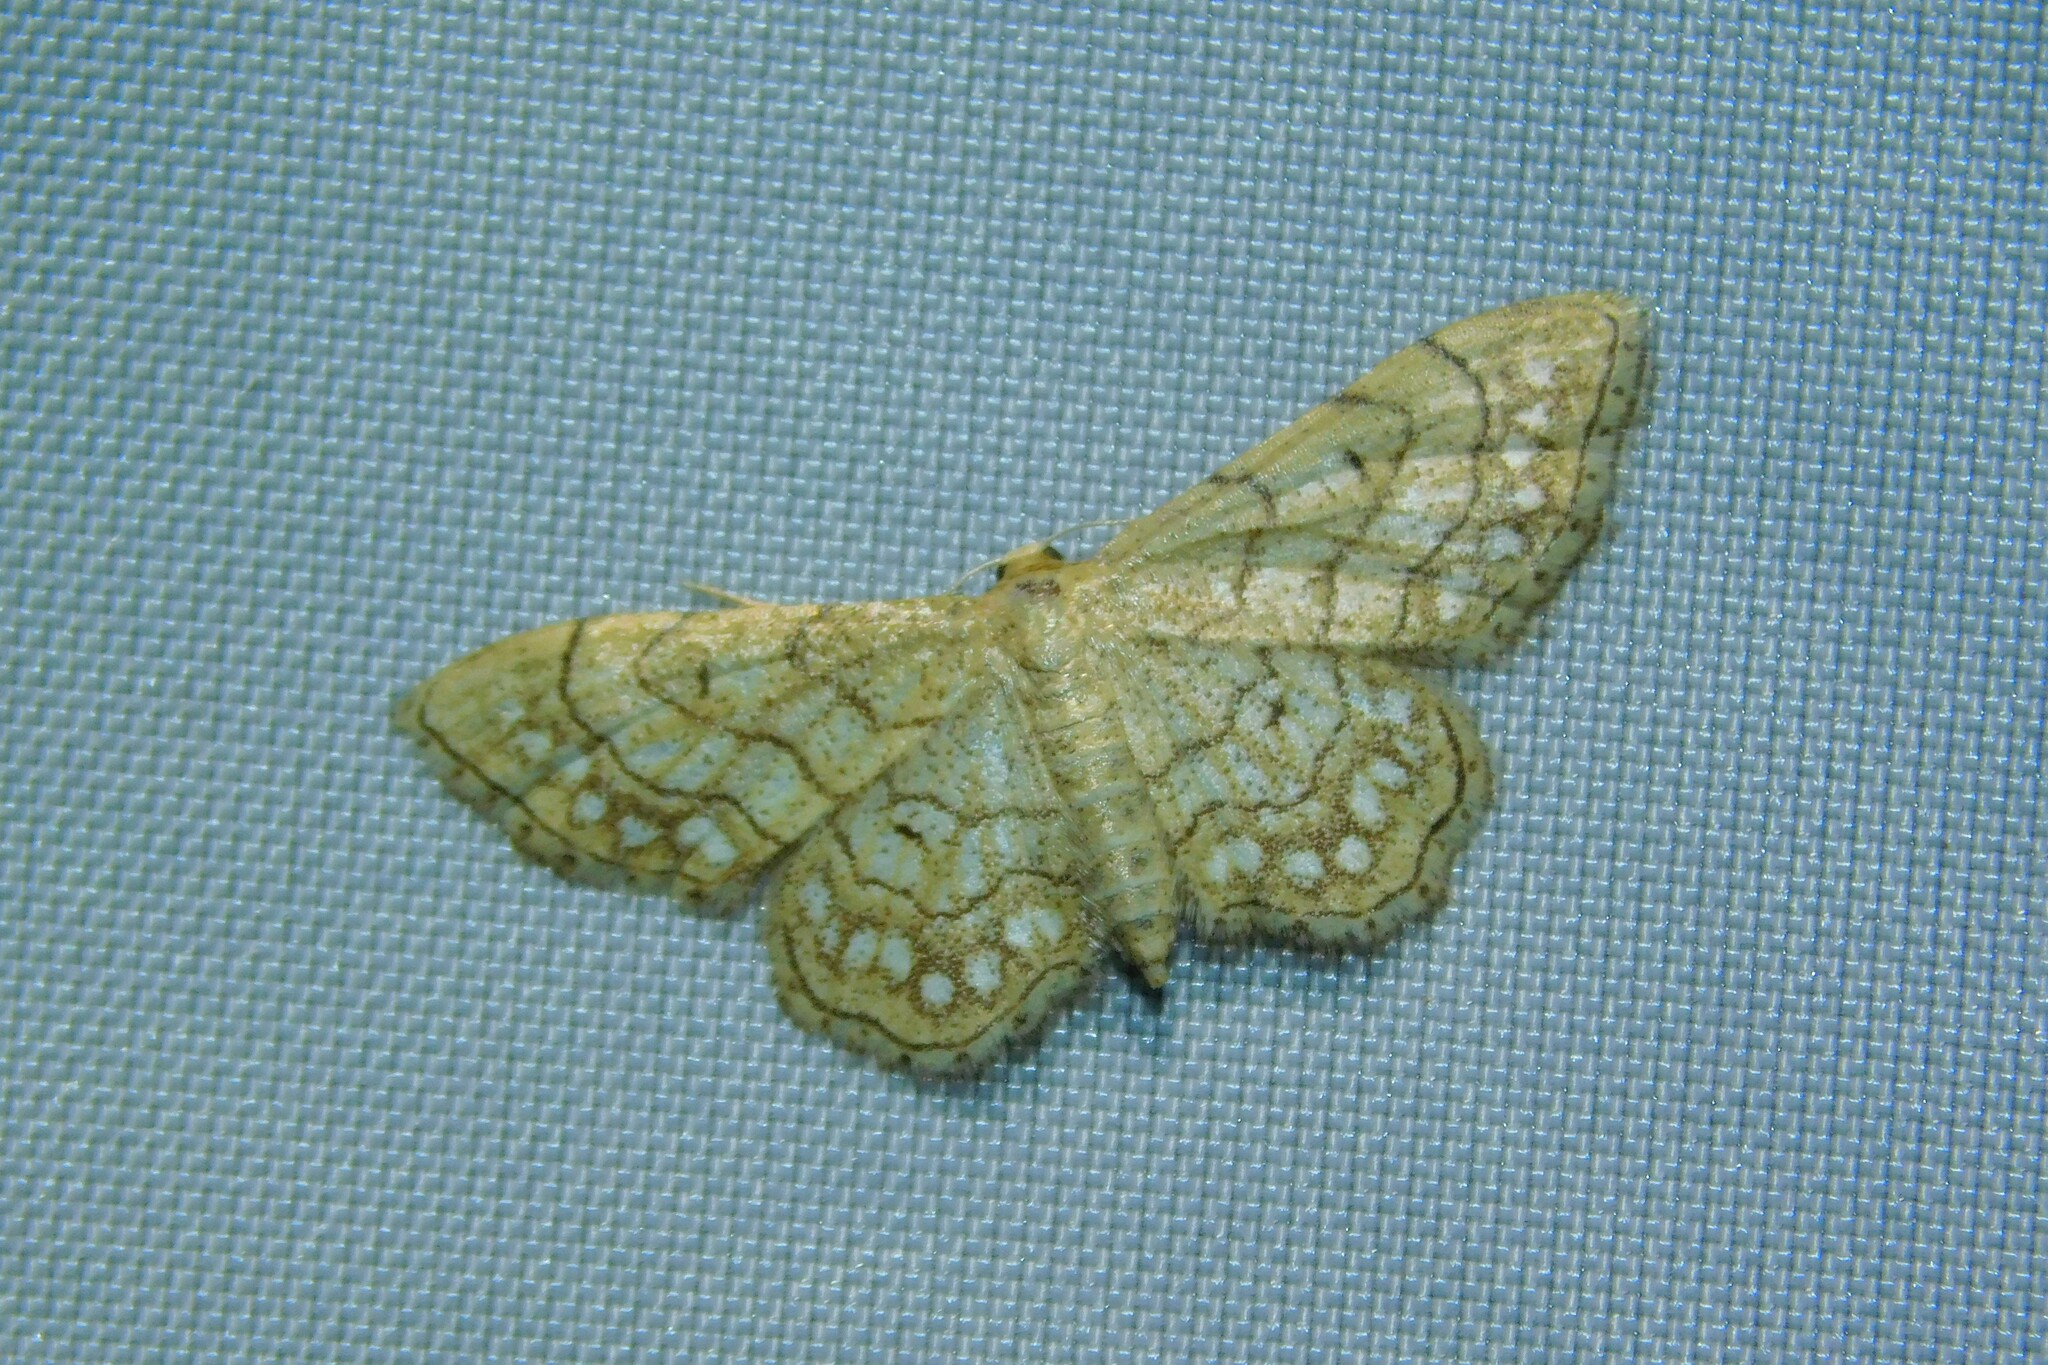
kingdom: Animalia
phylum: Arthropoda
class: Insecta
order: Lepidoptera
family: Geometridae
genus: Idaea
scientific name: Idaea moniliata
